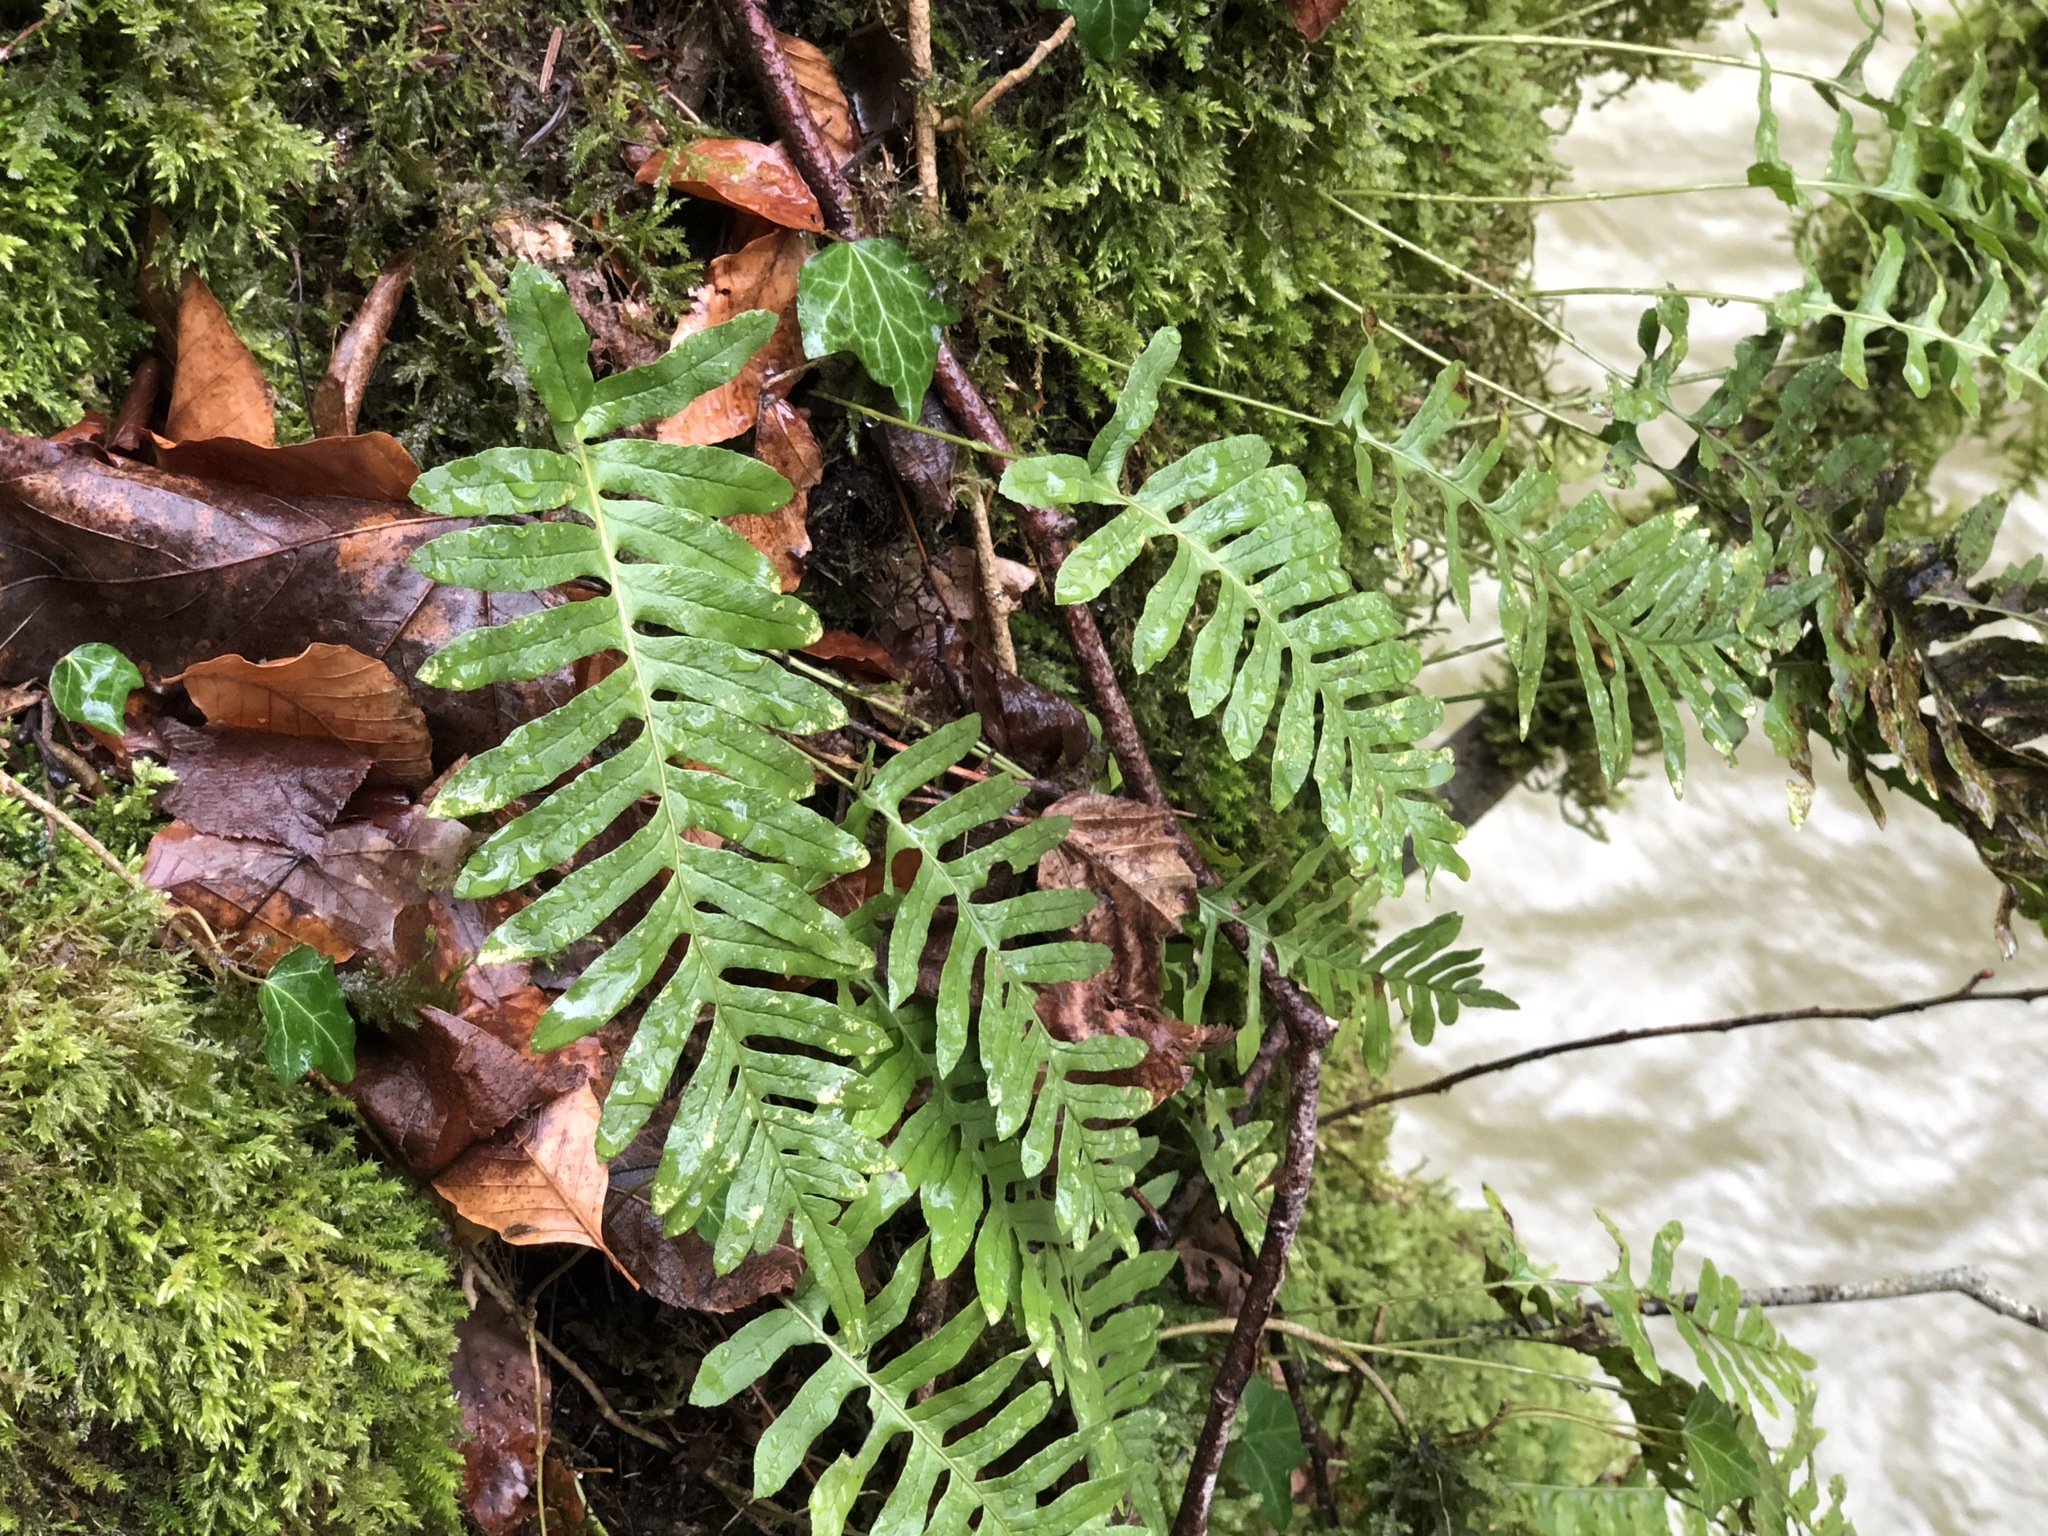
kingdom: Plantae
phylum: Tracheophyta
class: Polypodiopsida
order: Polypodiales
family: Polypodiaceae
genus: Polypodium
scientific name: Polypodium vulgare
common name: Common polypody
